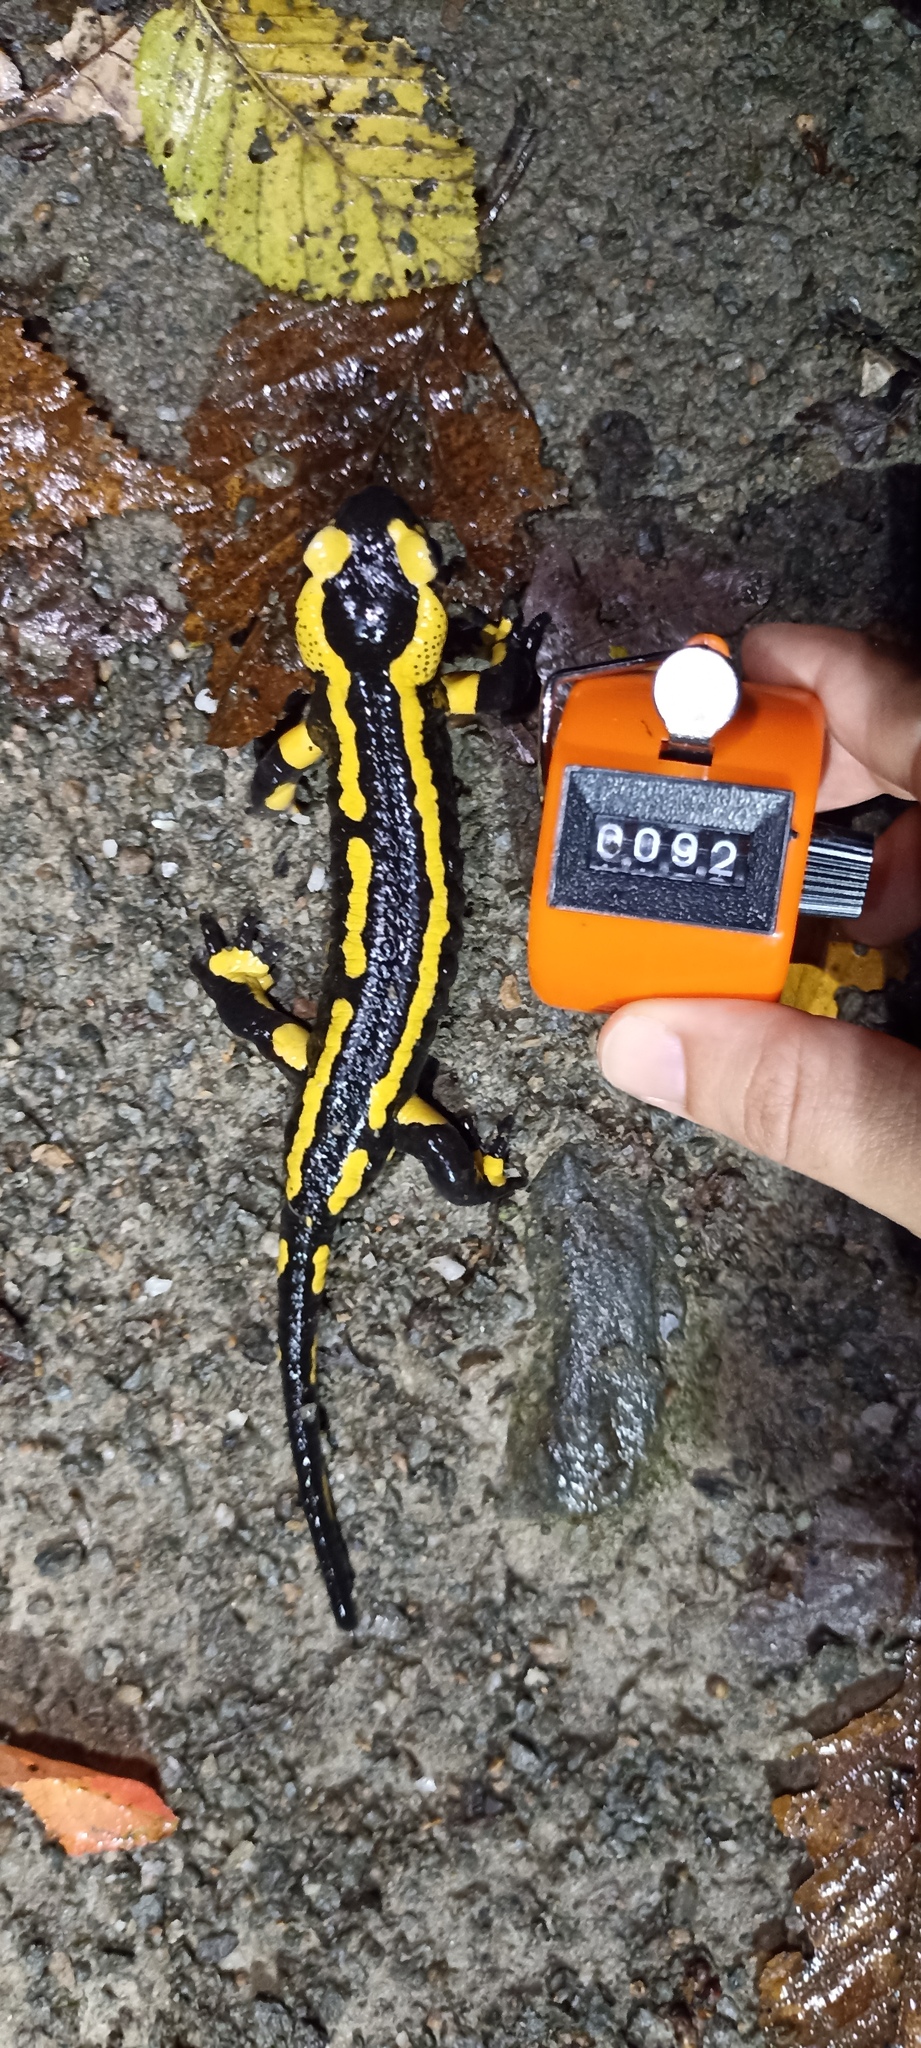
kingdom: Animalia
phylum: Chordata
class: Amphibia
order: Caudata
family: Salamandridae
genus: Salamandra
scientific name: Salamandra salamandra
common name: Fire salamander
